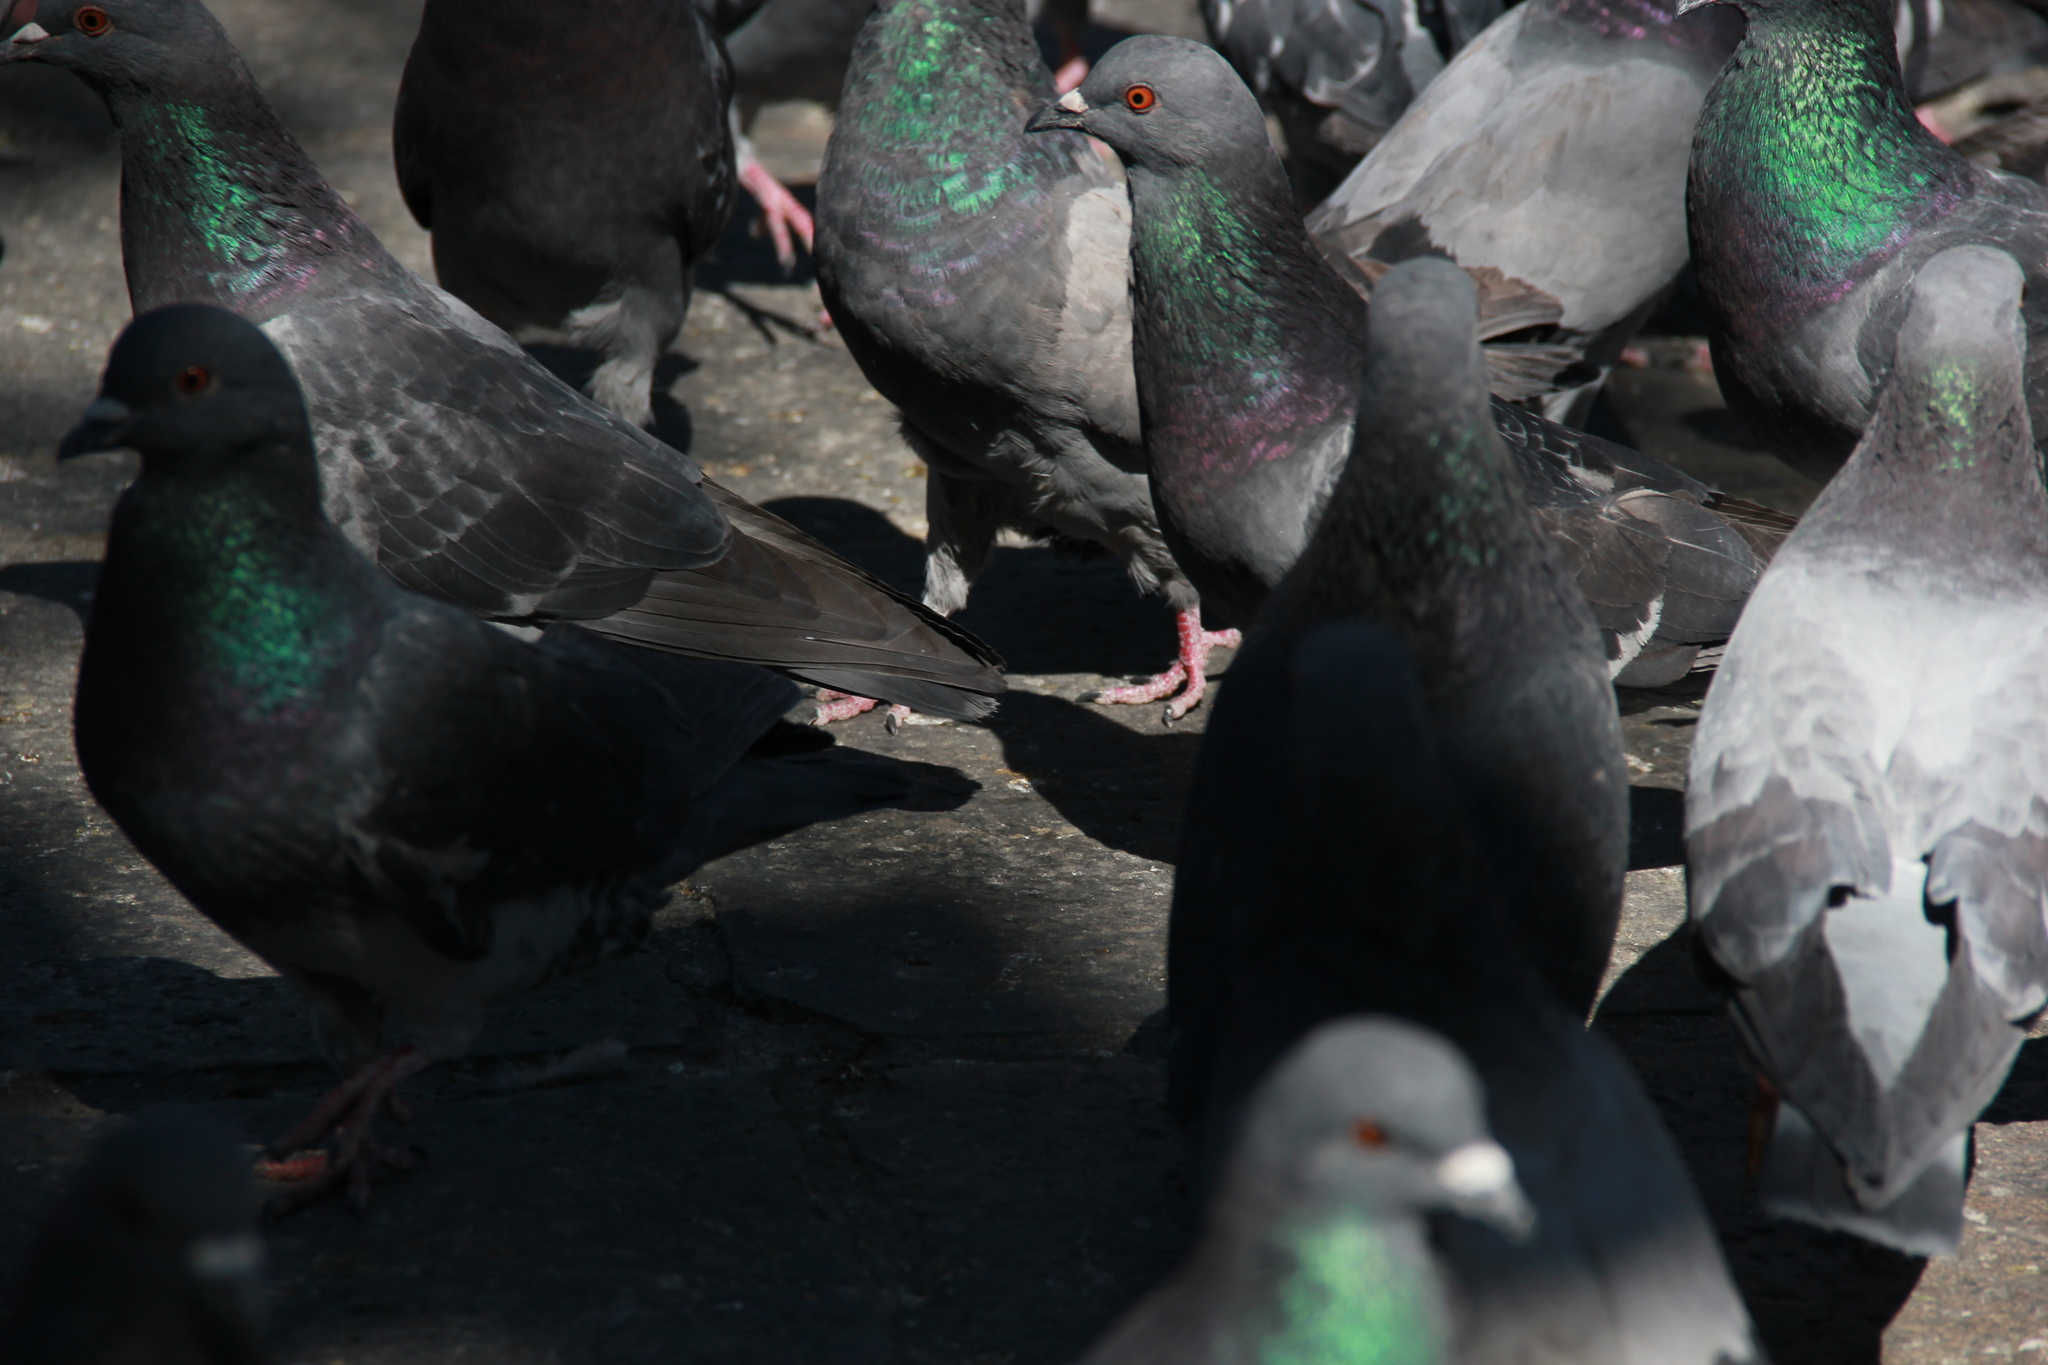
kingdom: Animalia
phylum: Chordata
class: Aves
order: Columbiformes
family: Columbidae
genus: Columba
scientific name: Columba livia
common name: Rock pigeon
